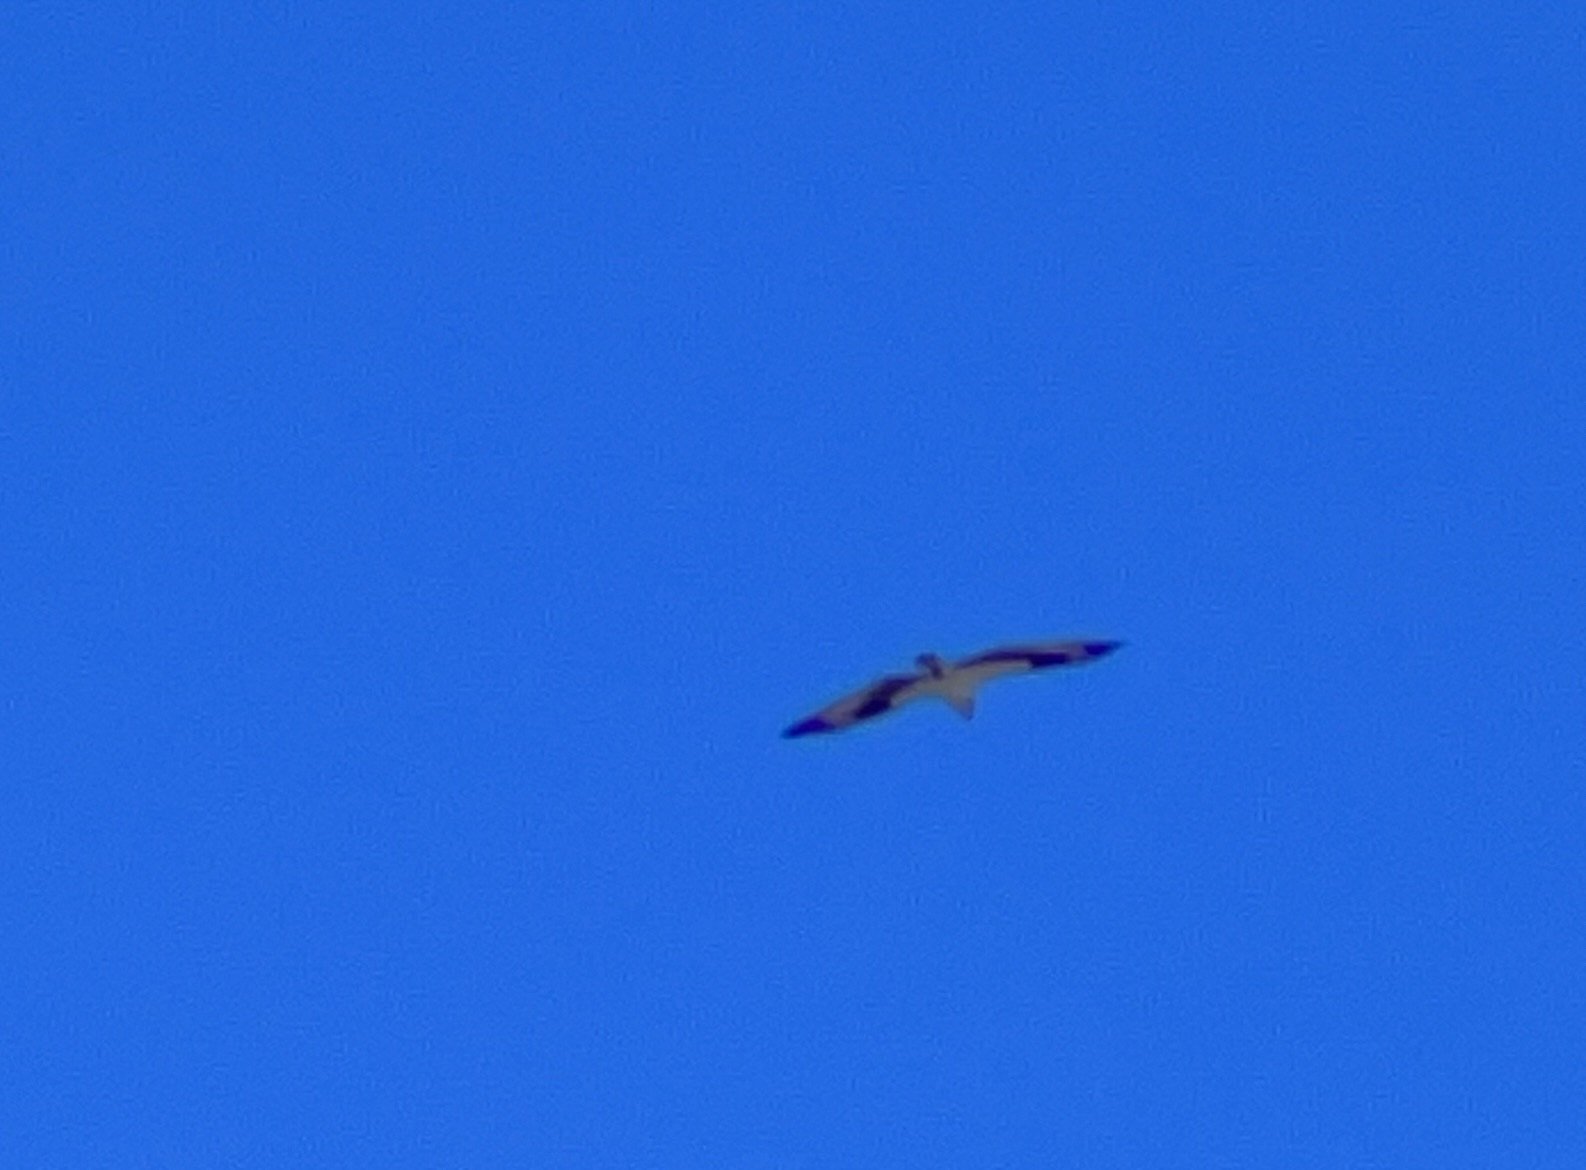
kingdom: Animalia
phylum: Chordata
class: Aves
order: Accipitriformes
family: Pandionidae
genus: Pandion
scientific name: Pandion haliaetus
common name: Osprey
